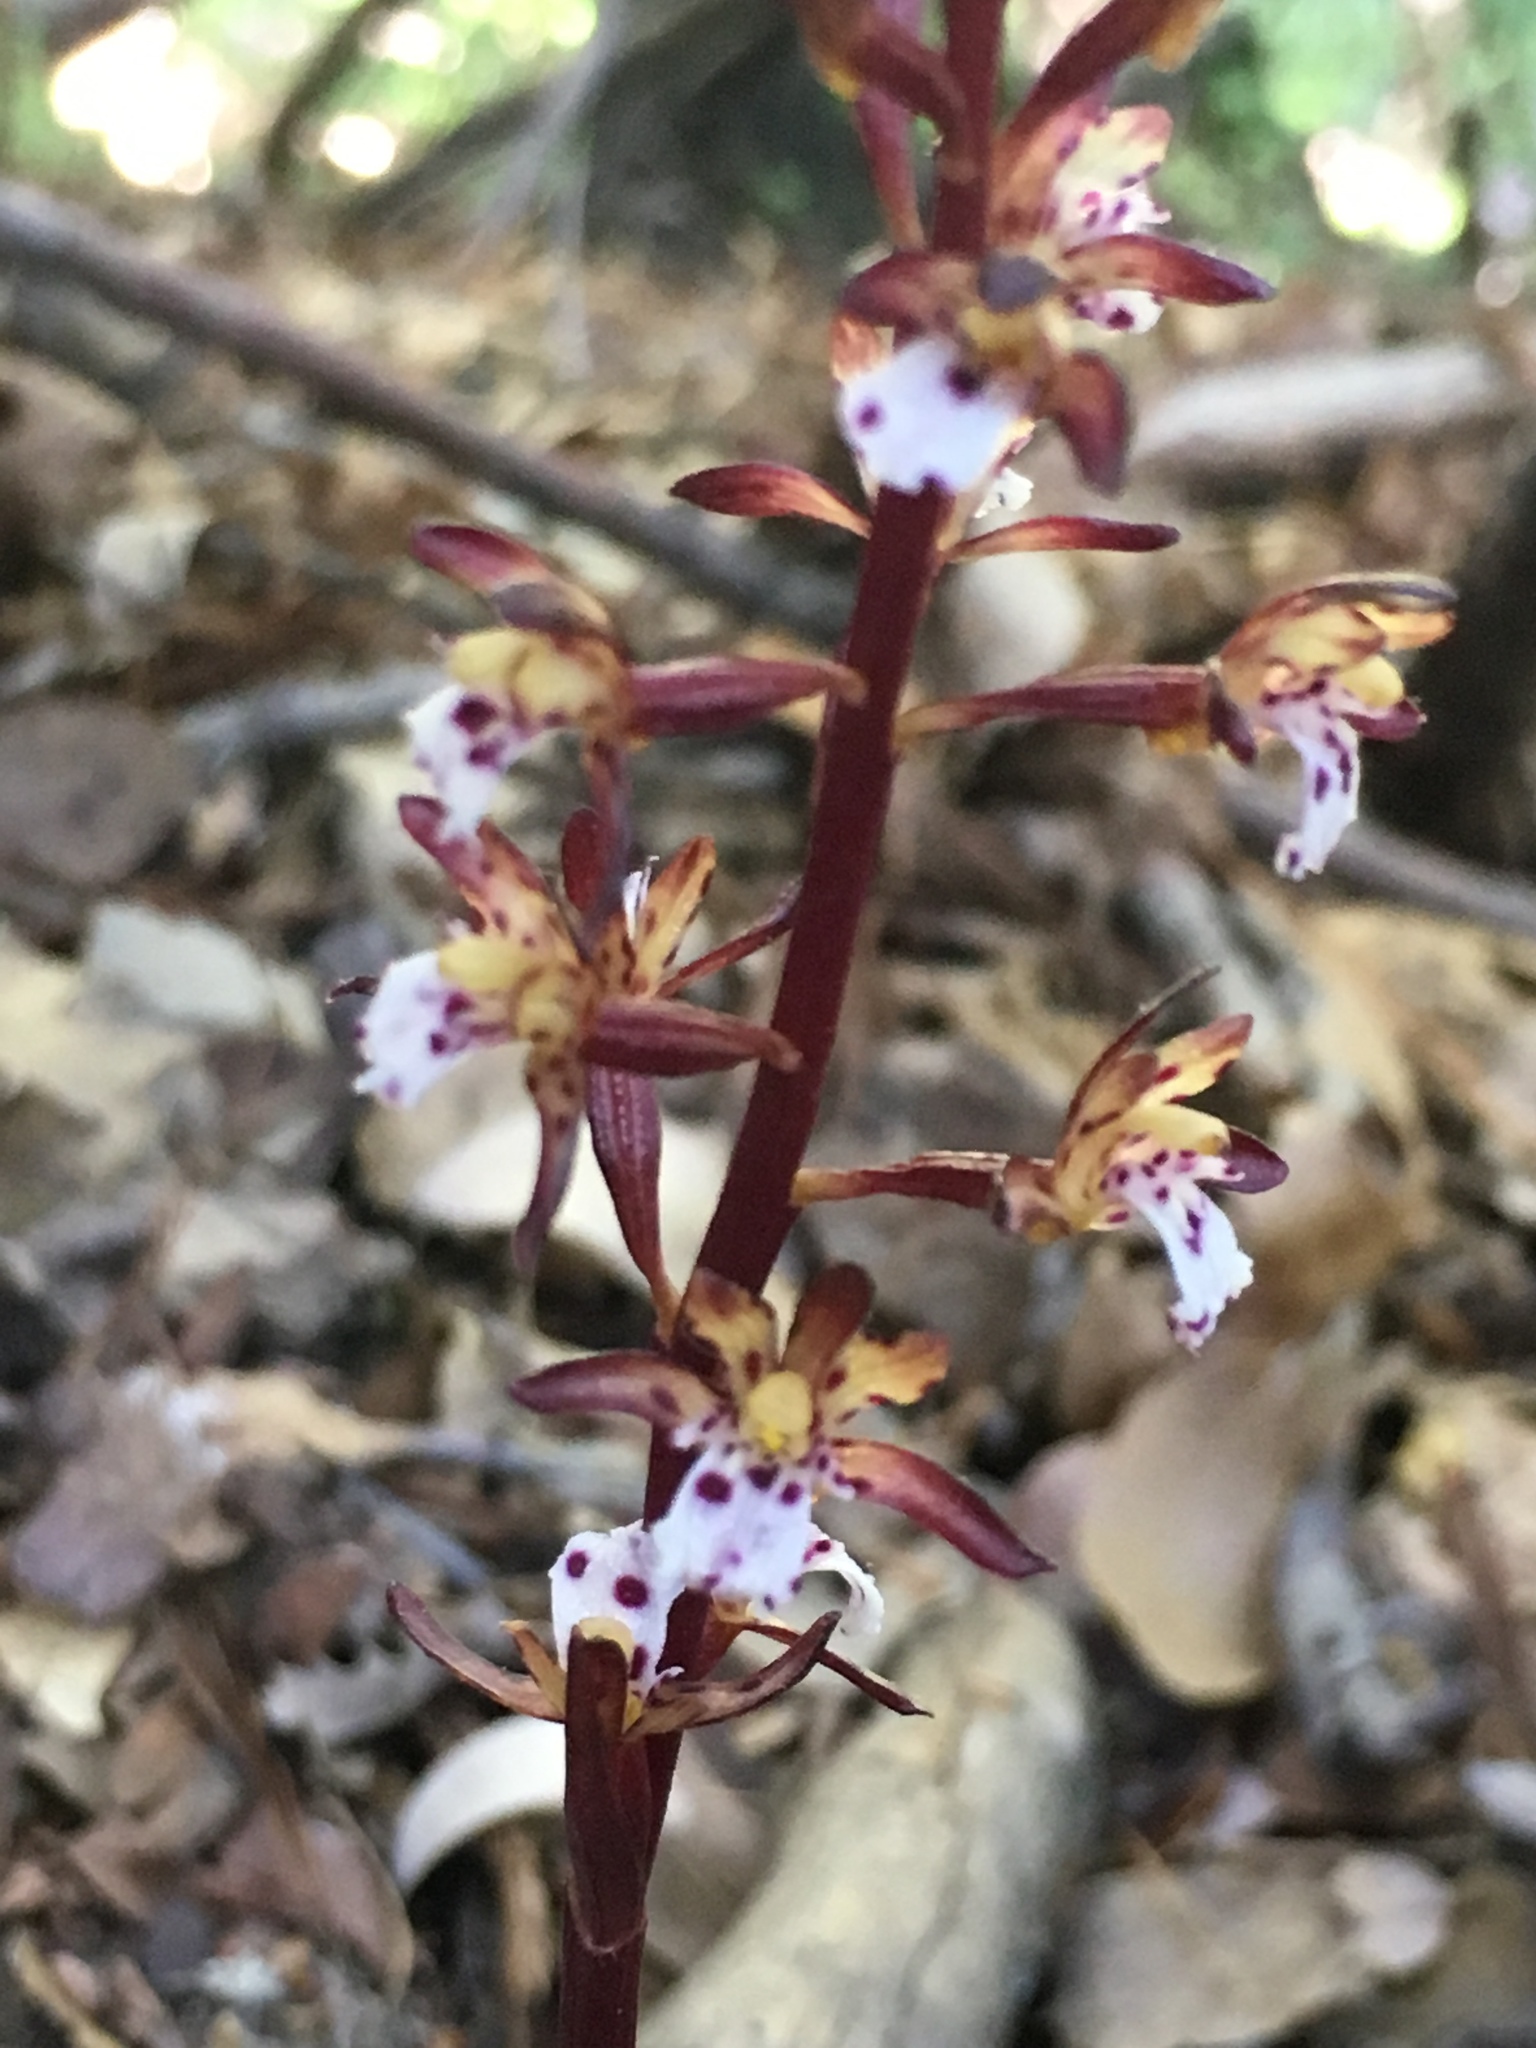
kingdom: Plantae
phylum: Tracheophyta
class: Liliopsida
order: Asparagales
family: Orchidaceae
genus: Corallorhiza
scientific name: Corallorhiza maculata
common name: Spotted coralroot
